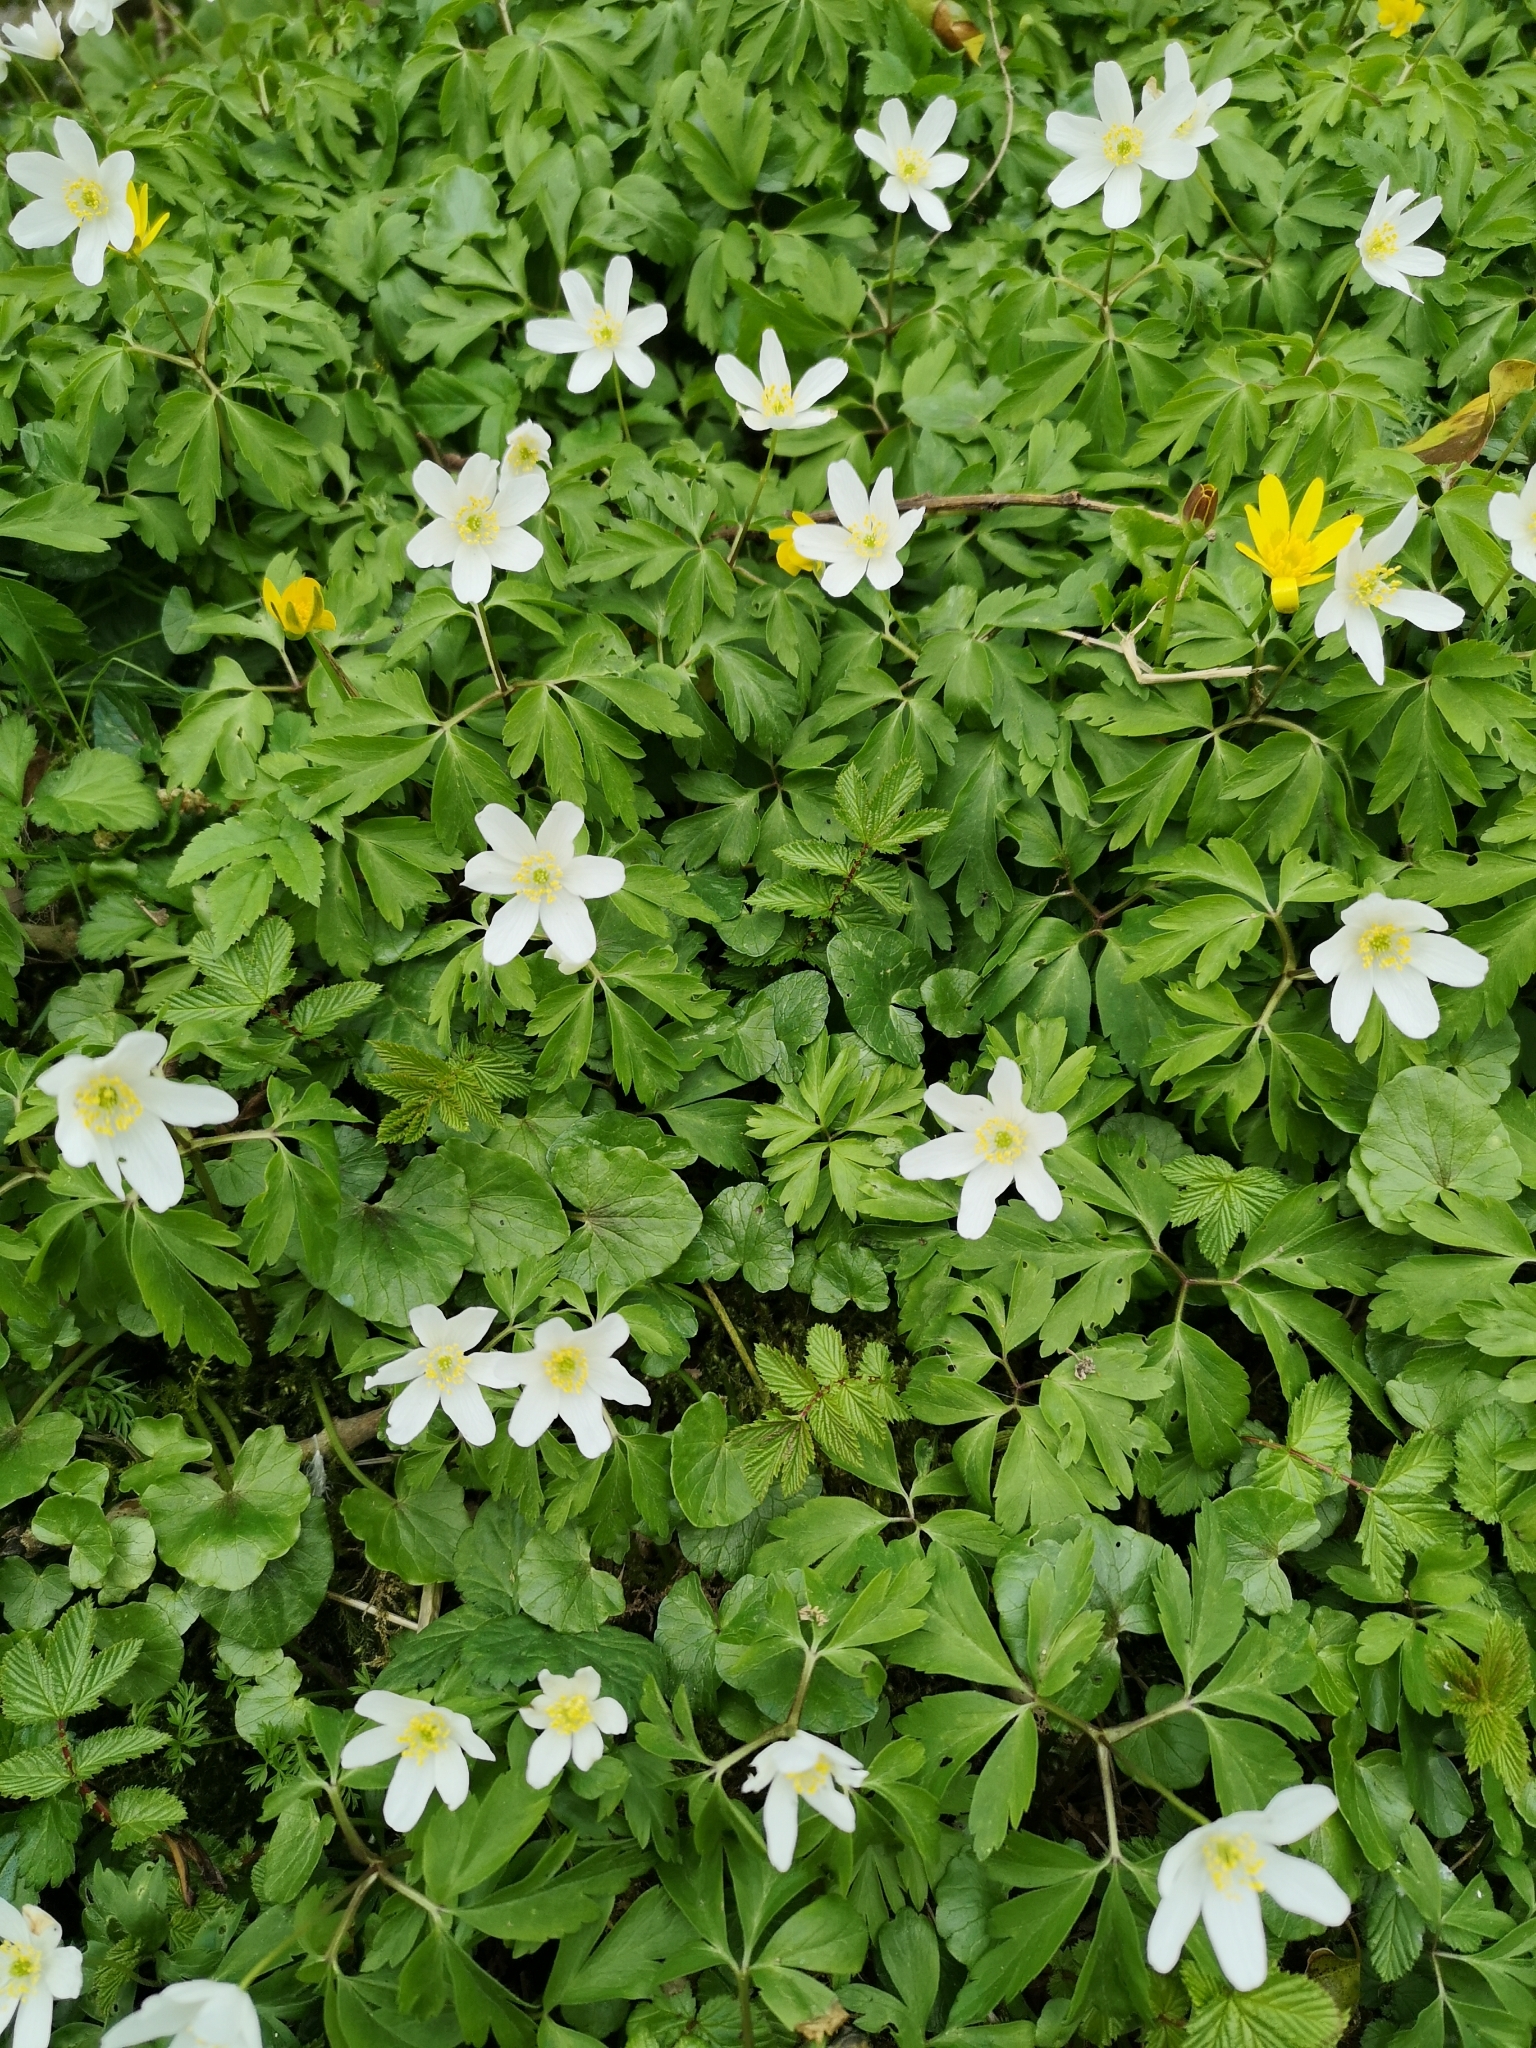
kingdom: Plantae
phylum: Tracheophyta
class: Magnoliopsida
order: Ranunculales
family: Ranunculaceae
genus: Anemone
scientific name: Anemone nemorosa
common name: Wood anemone
